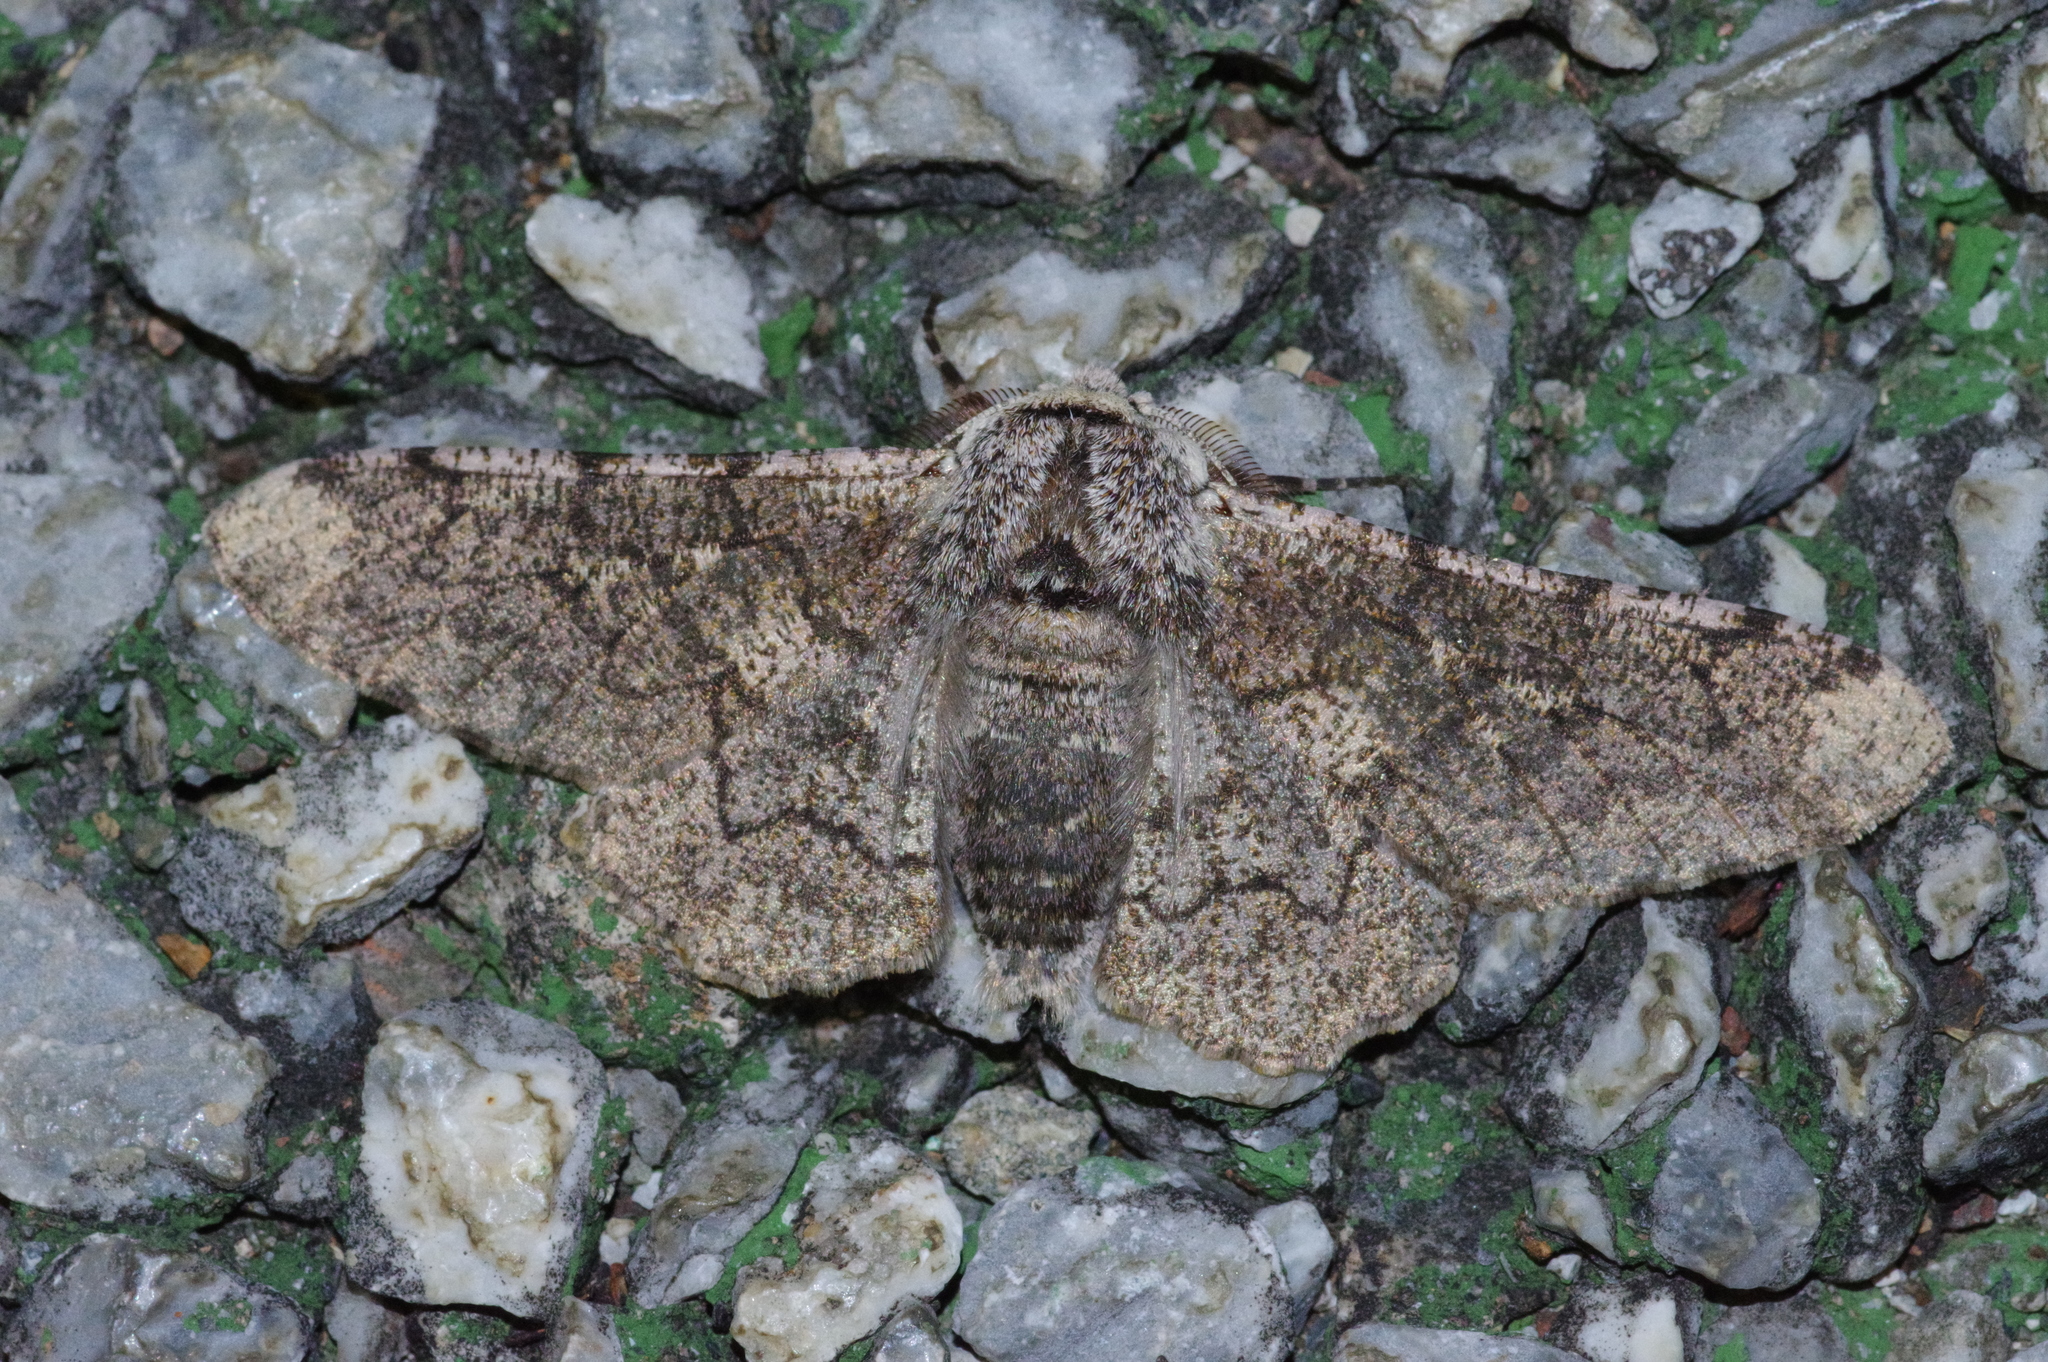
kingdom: Animalia
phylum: Arthropoda
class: Insecta
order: Lepidoptera
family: Geometridae
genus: Biston
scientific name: Biston robustum
